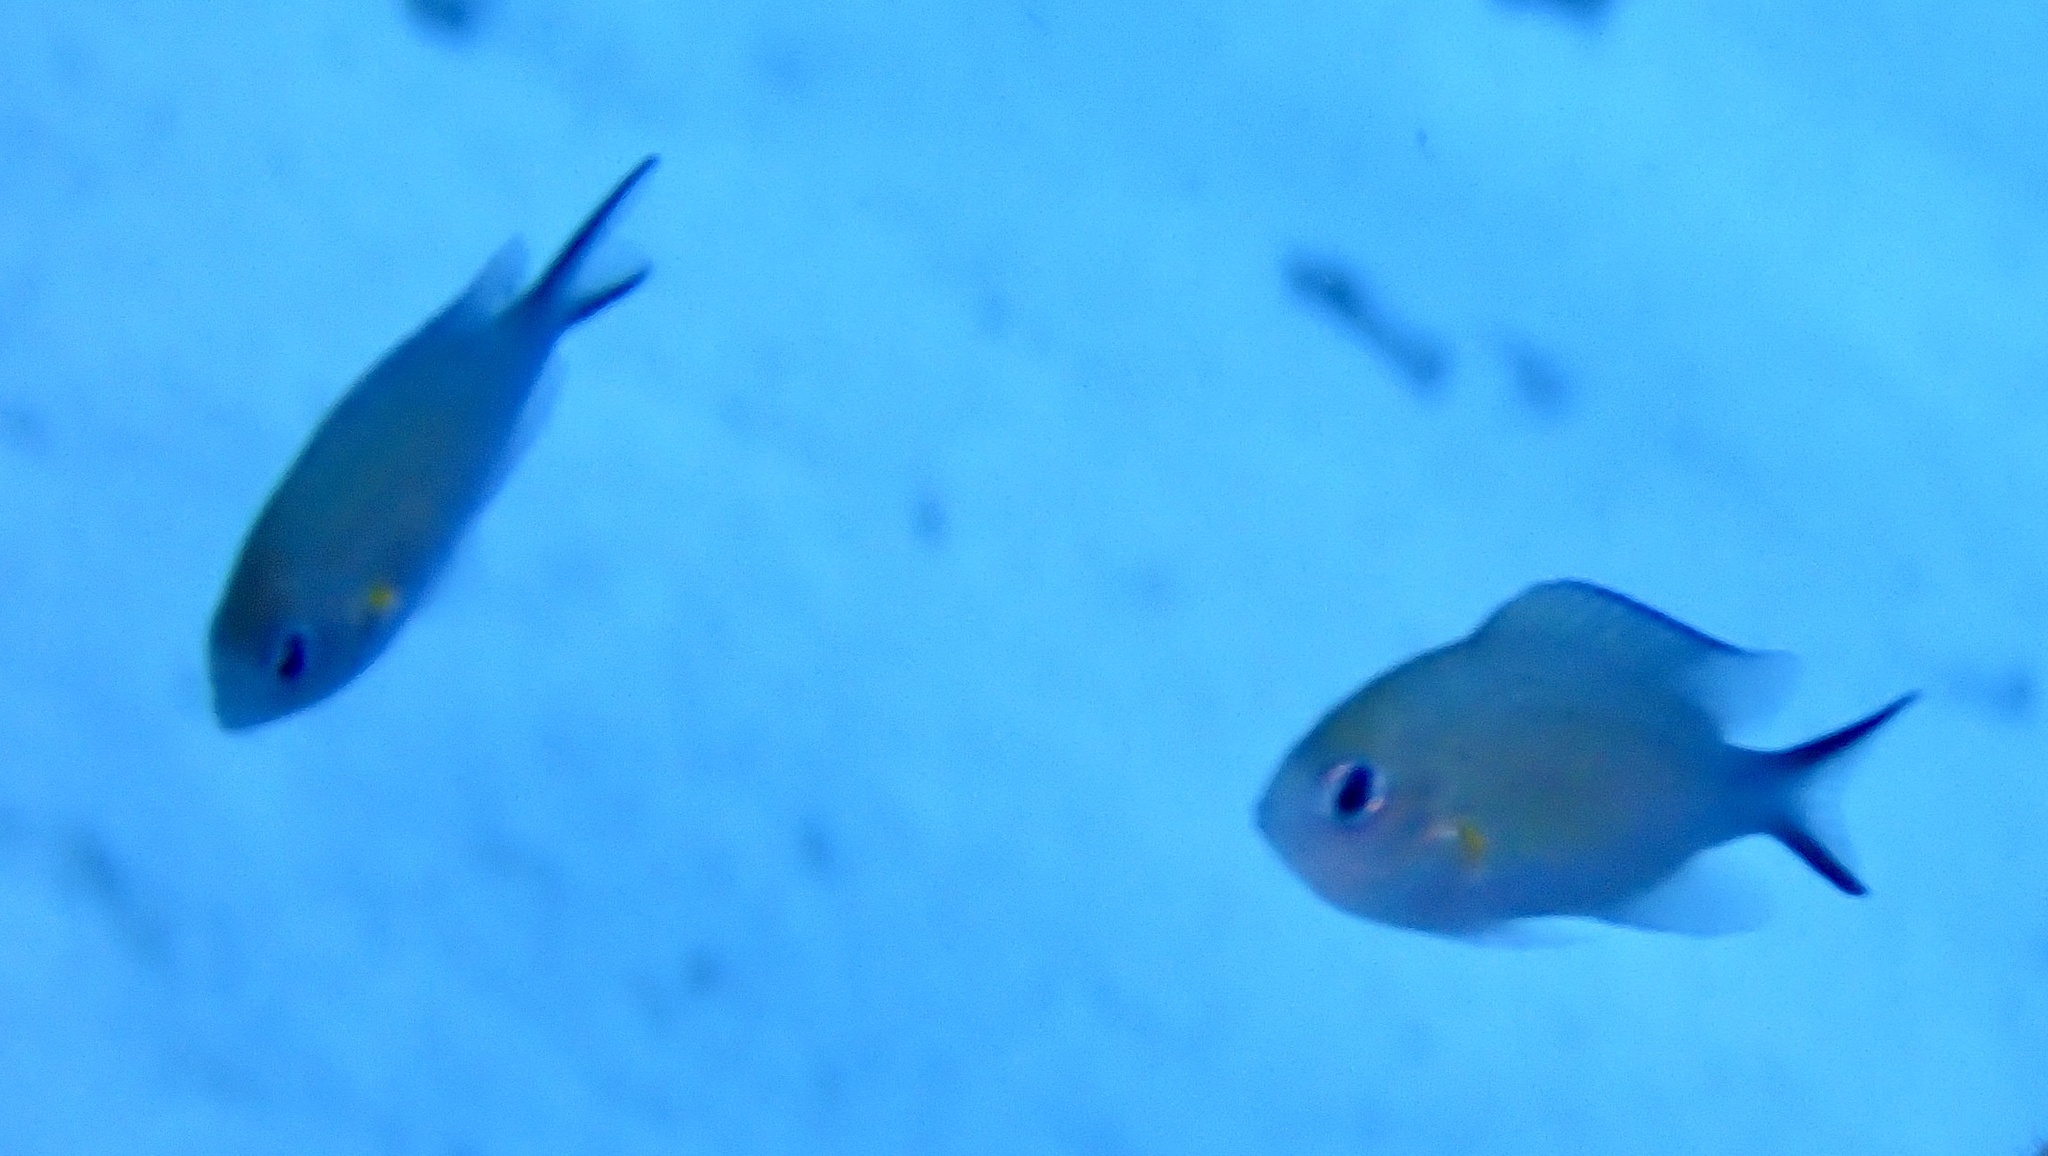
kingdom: Animalia
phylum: Chordata
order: Perciformes
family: Pomacentridae
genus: Chromis
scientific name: Chromis flavaxilla
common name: Arabian chromis
